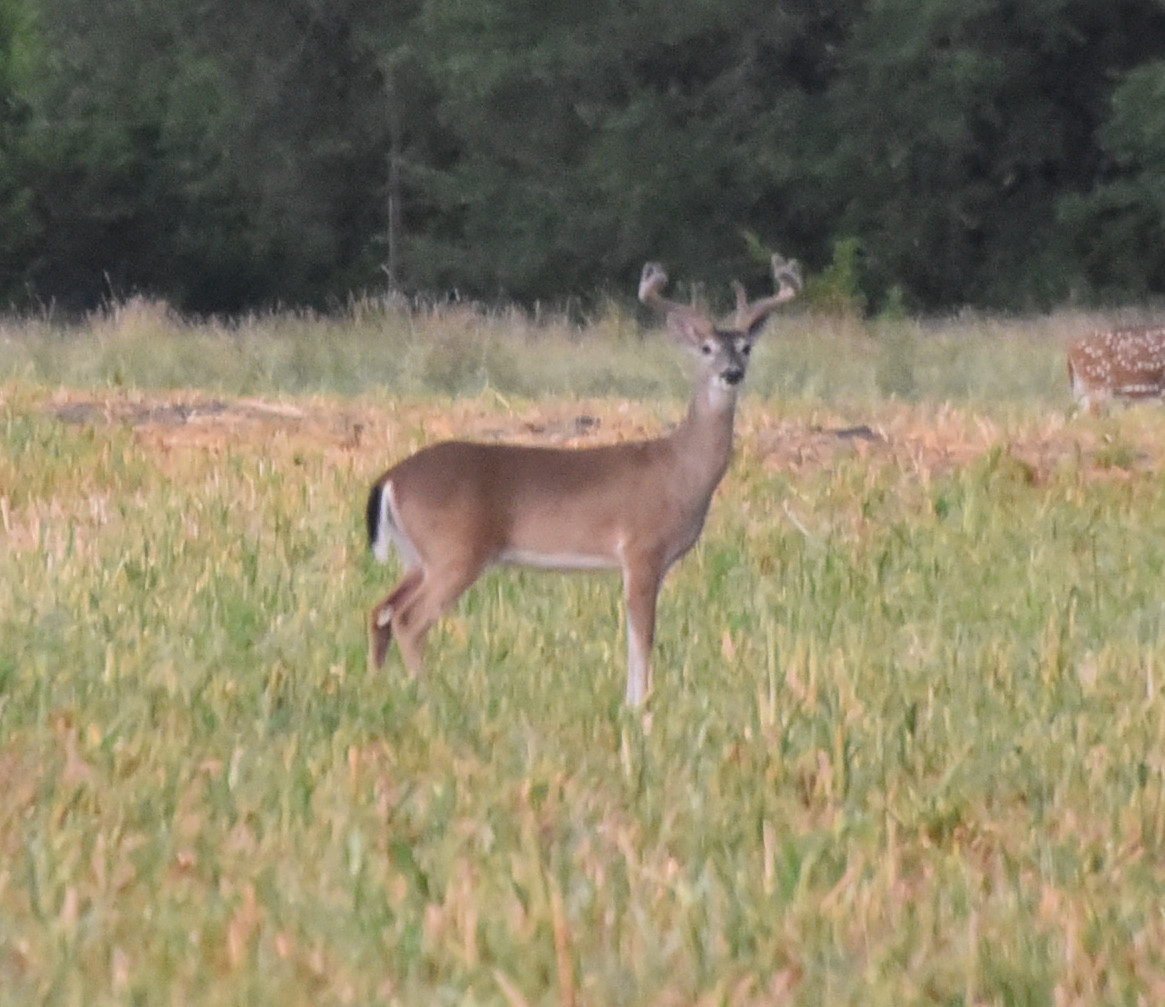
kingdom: Animalia
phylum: Chordata
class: Mammalia
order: Artiodactyla
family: Cervidae
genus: Odocoileus
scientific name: Odocoileus virginianus
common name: White-tailed deer
